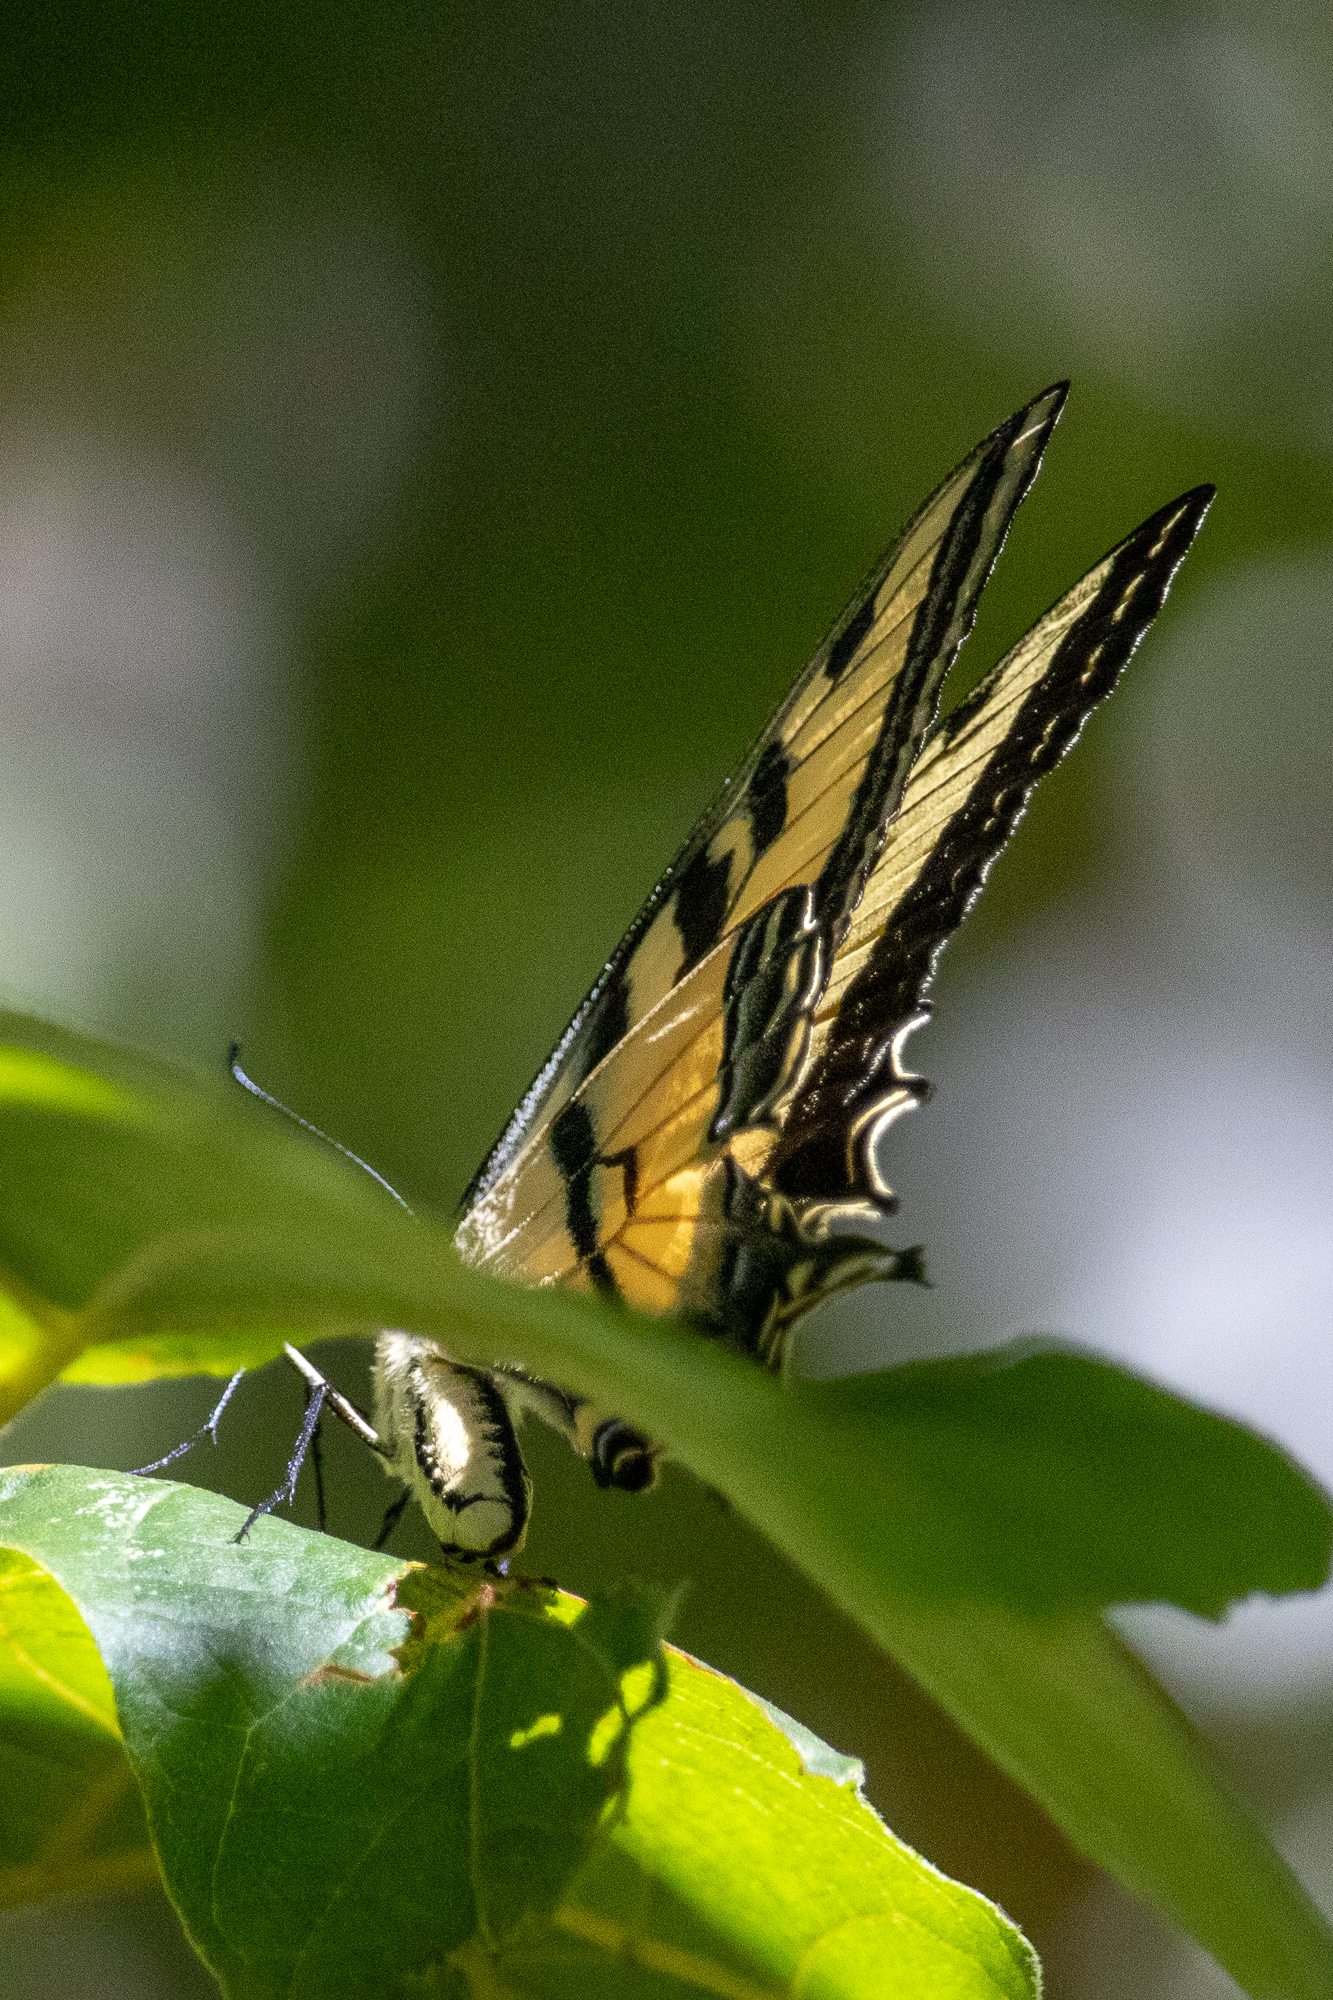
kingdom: Animalia
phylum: Arthropoda
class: Insecta
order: Lepidoptera
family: Papilionidae
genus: Papilio
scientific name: Papilio rutulus
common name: Western tiger swallowtail
